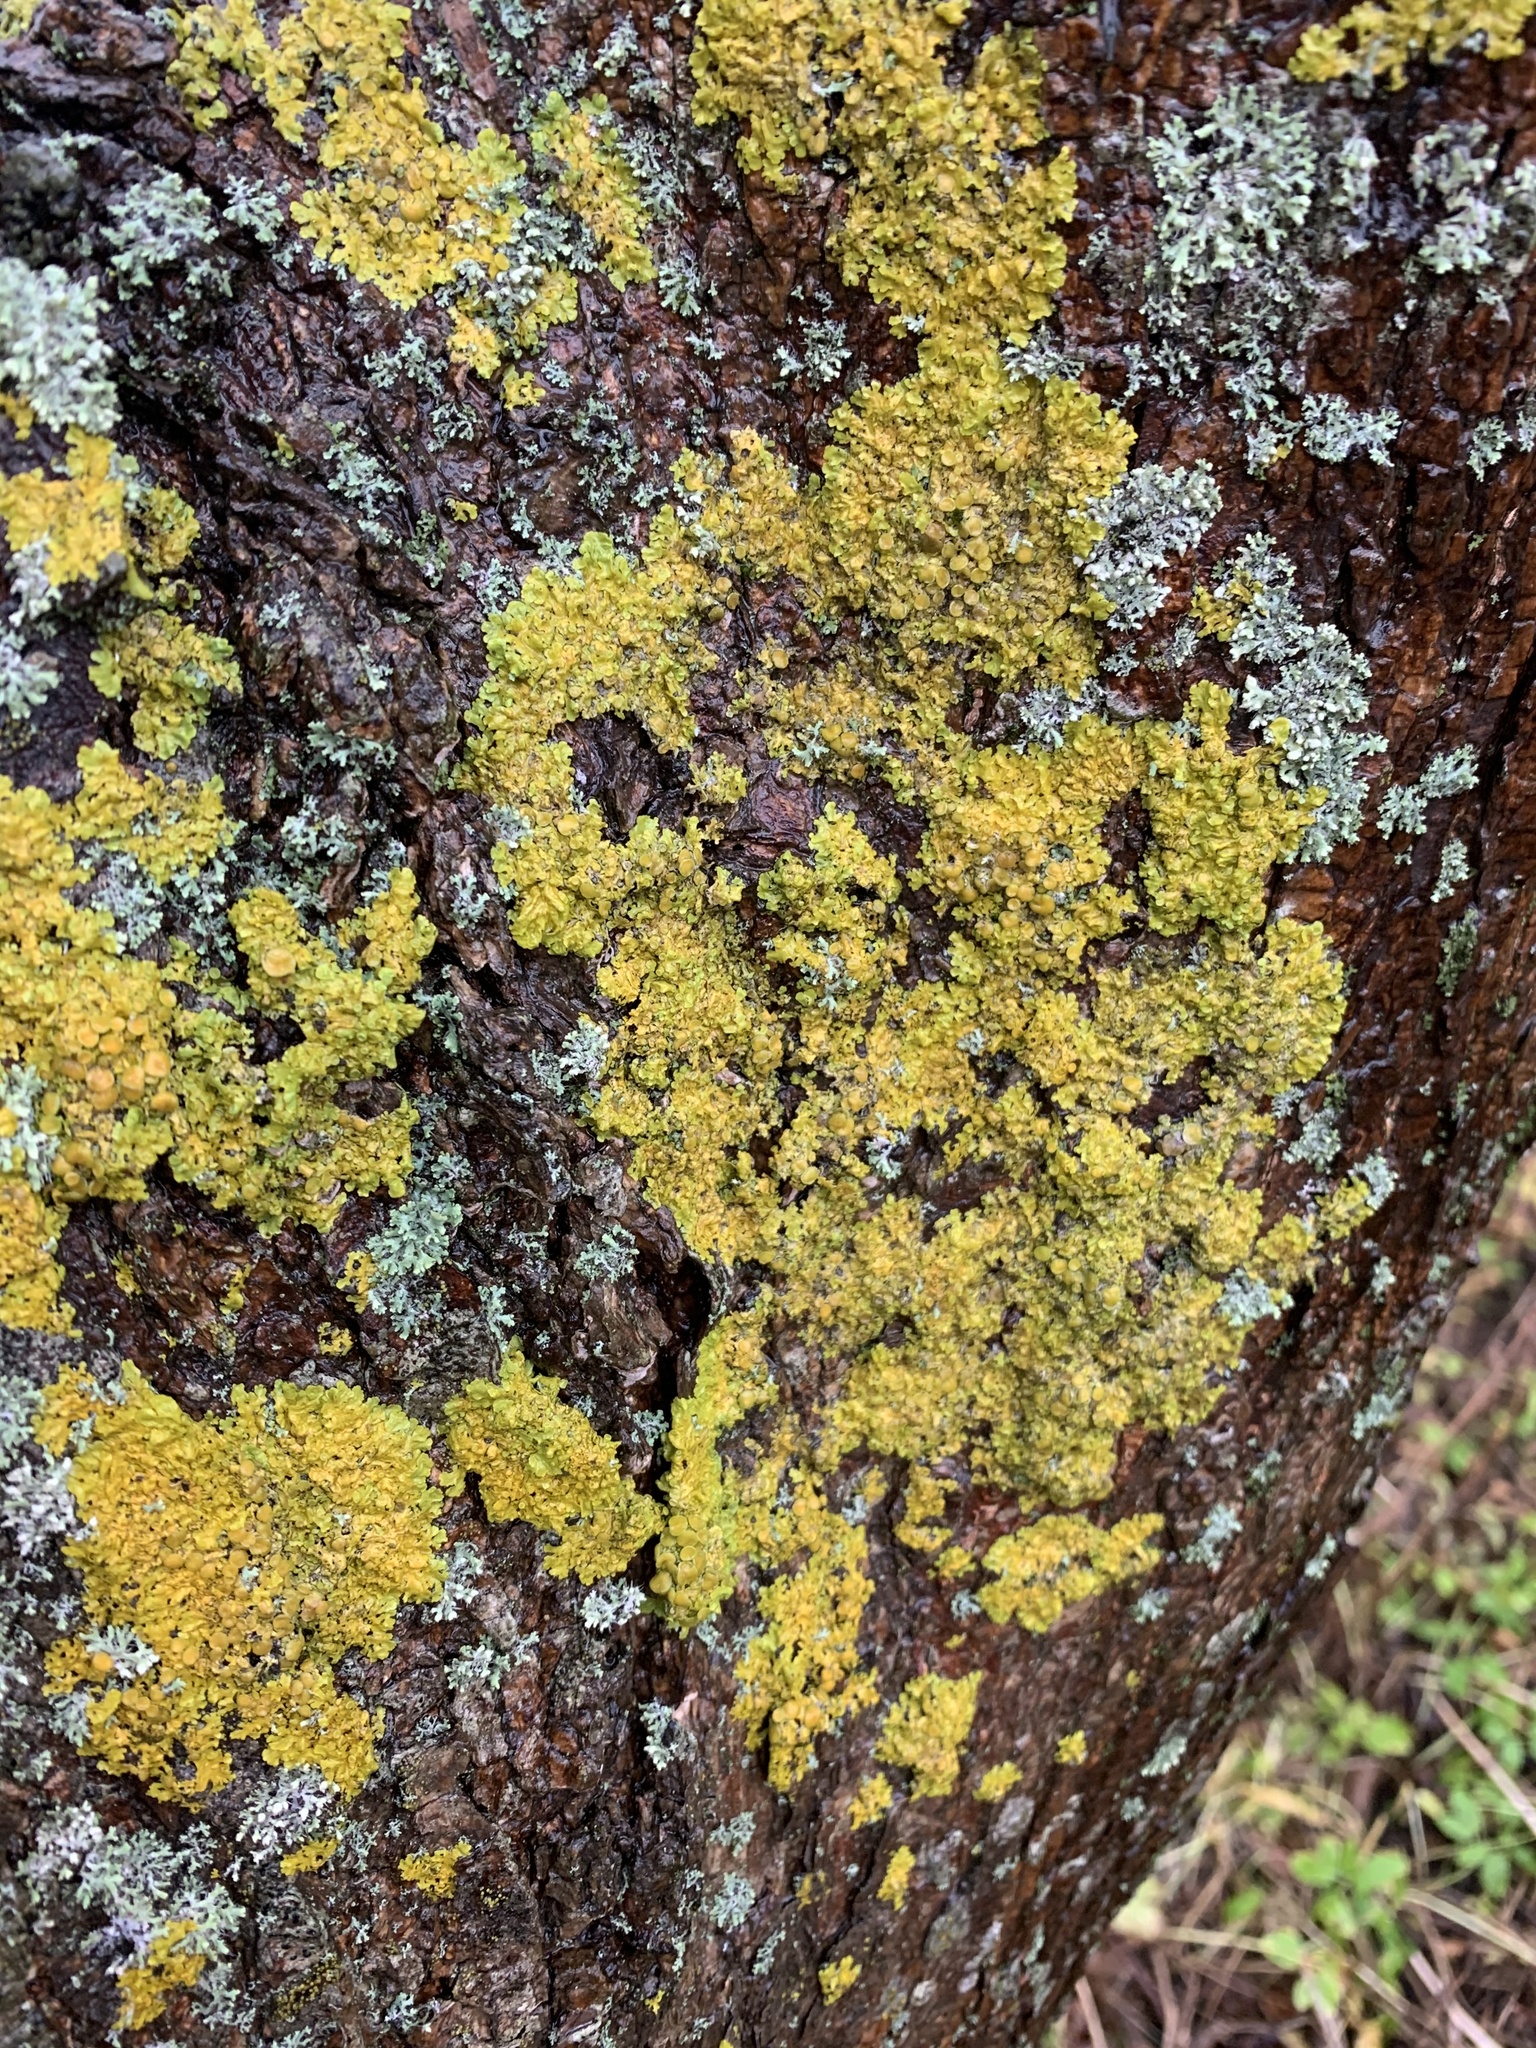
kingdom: Fungi
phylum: Ascomycota
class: Lecanoromycetes
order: Teloschistales
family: Teloschistaceae
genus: Xanthoria
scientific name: Xanthoria parietina
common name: Common orange lichen
